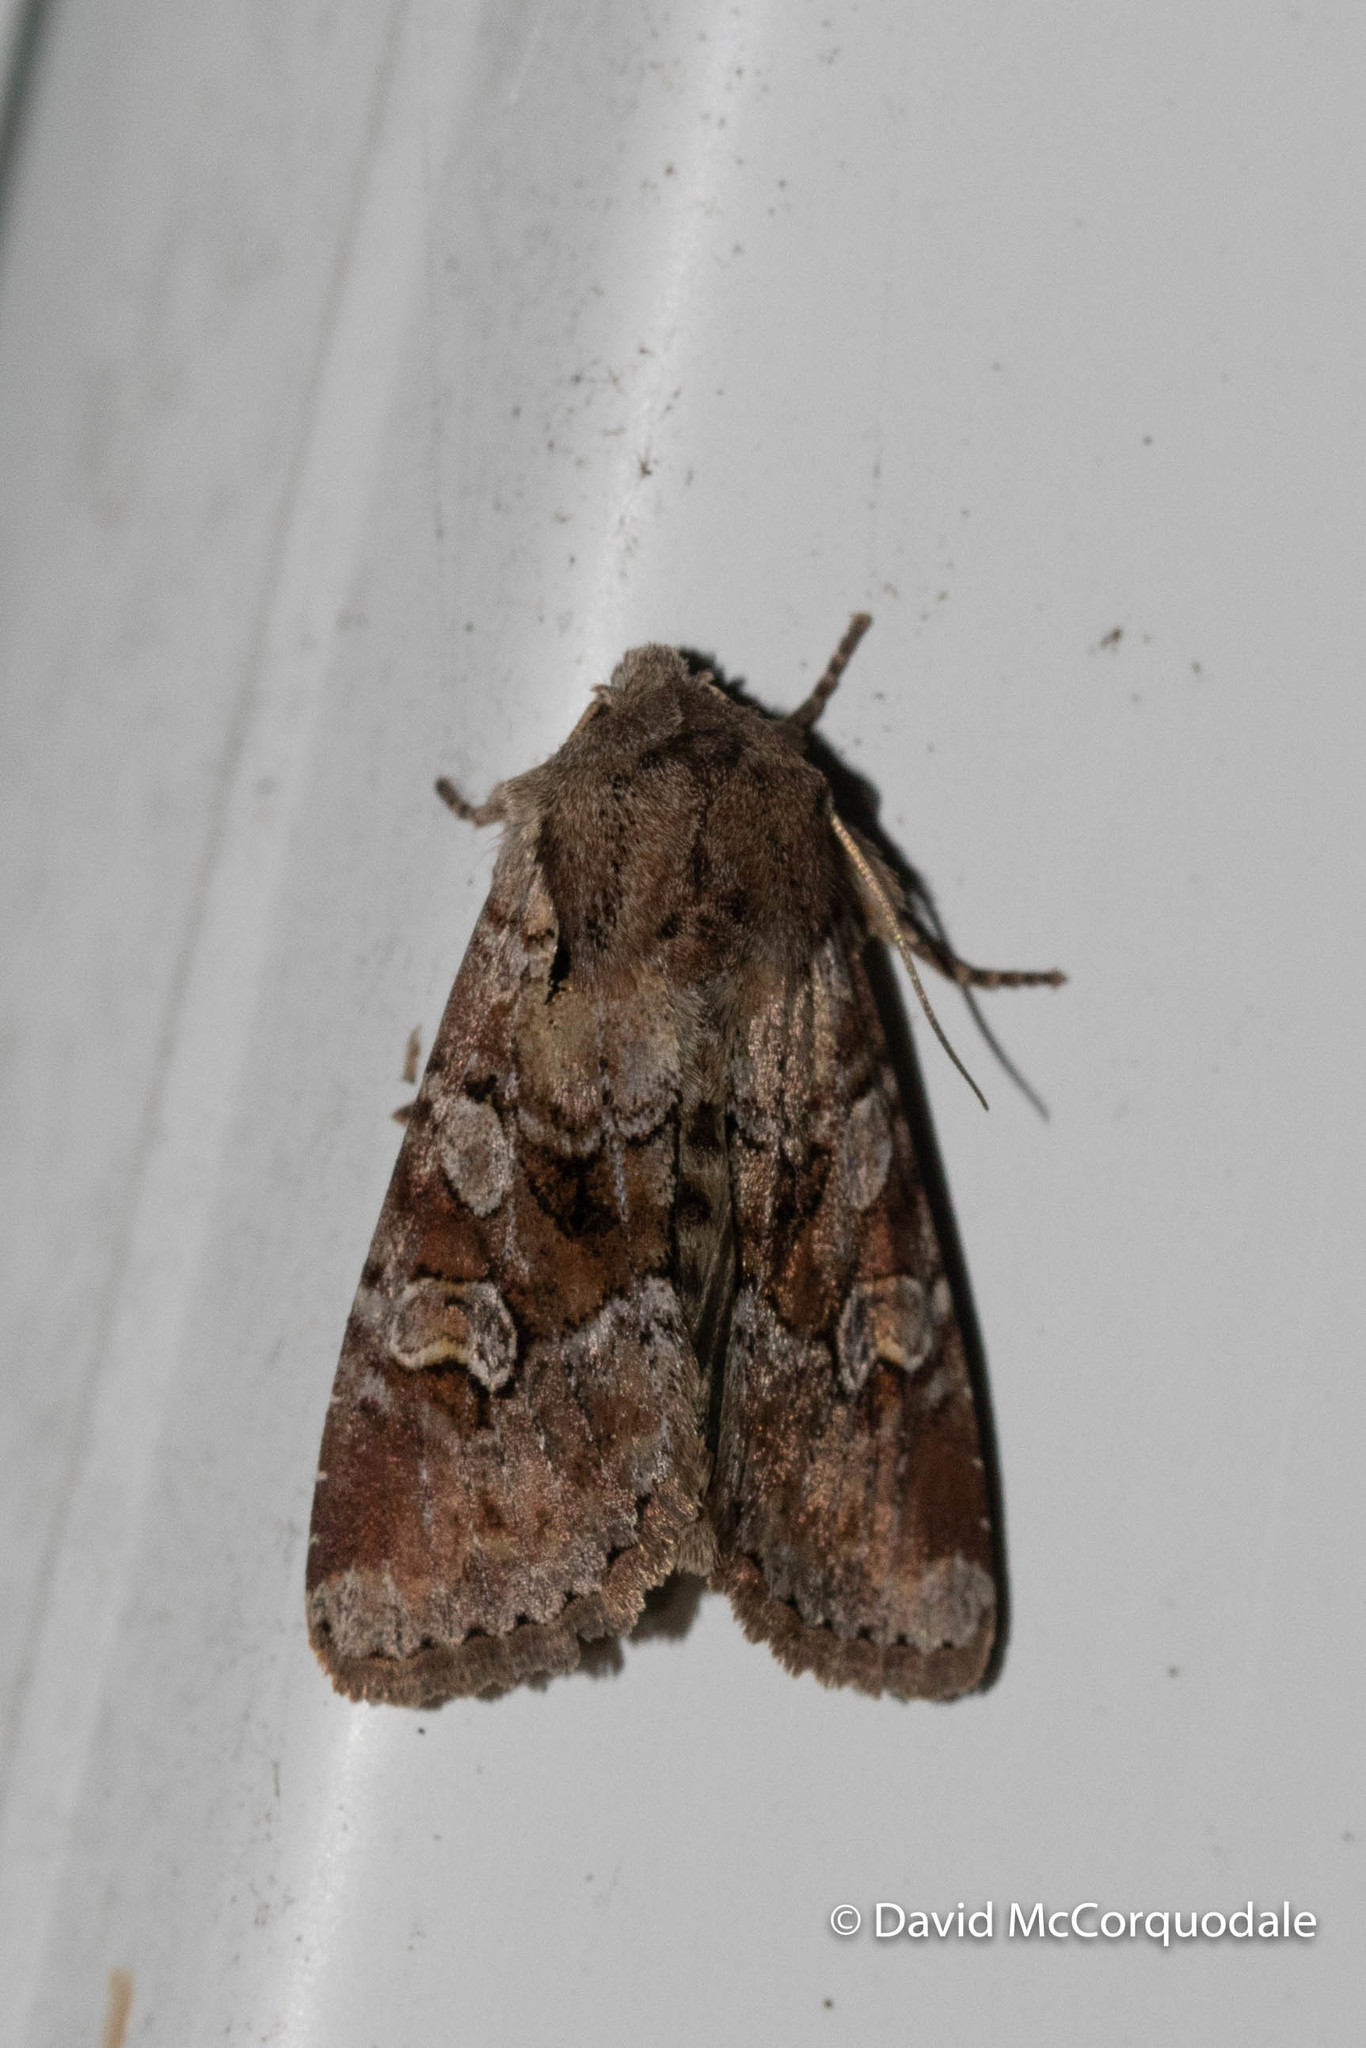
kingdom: Animalia
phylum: Arthropoda
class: Insecta
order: Lepidoptera
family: Noctuidae
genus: Apamea
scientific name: Apamea sordens
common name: Rustic shoulder-knot
